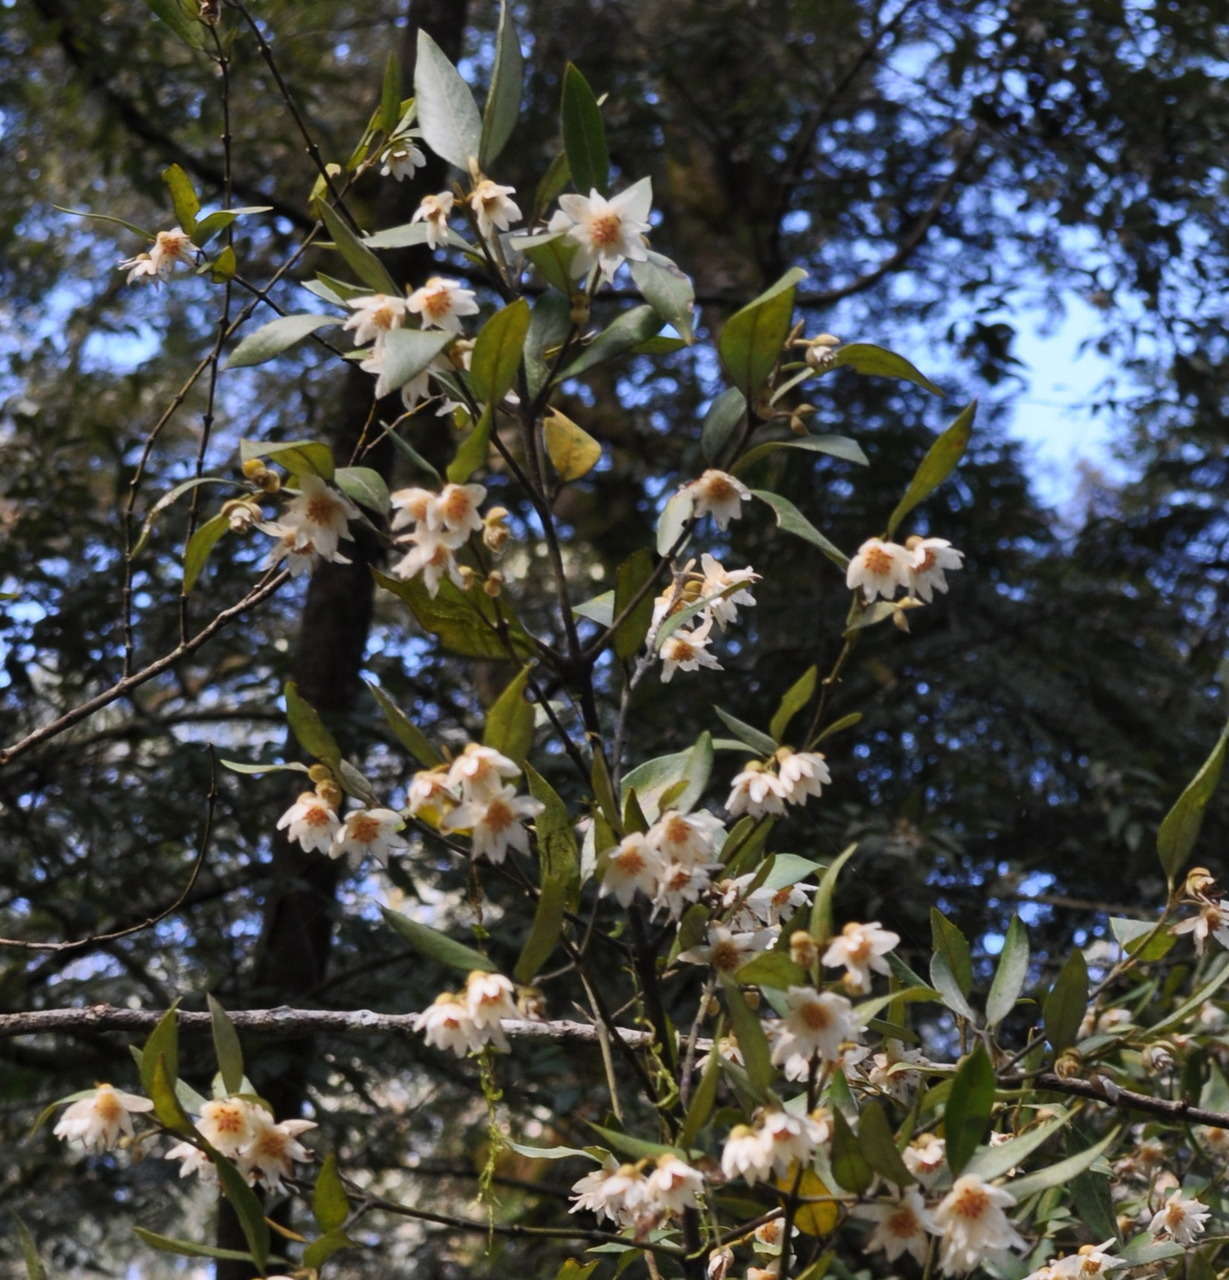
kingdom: Plantae
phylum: Tracheophyta
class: Magnoliopsida
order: Laurales
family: Atherospermataceae
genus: Atherosperma
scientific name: Atherosperma moschatum
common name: Tasmanian-sassafras
